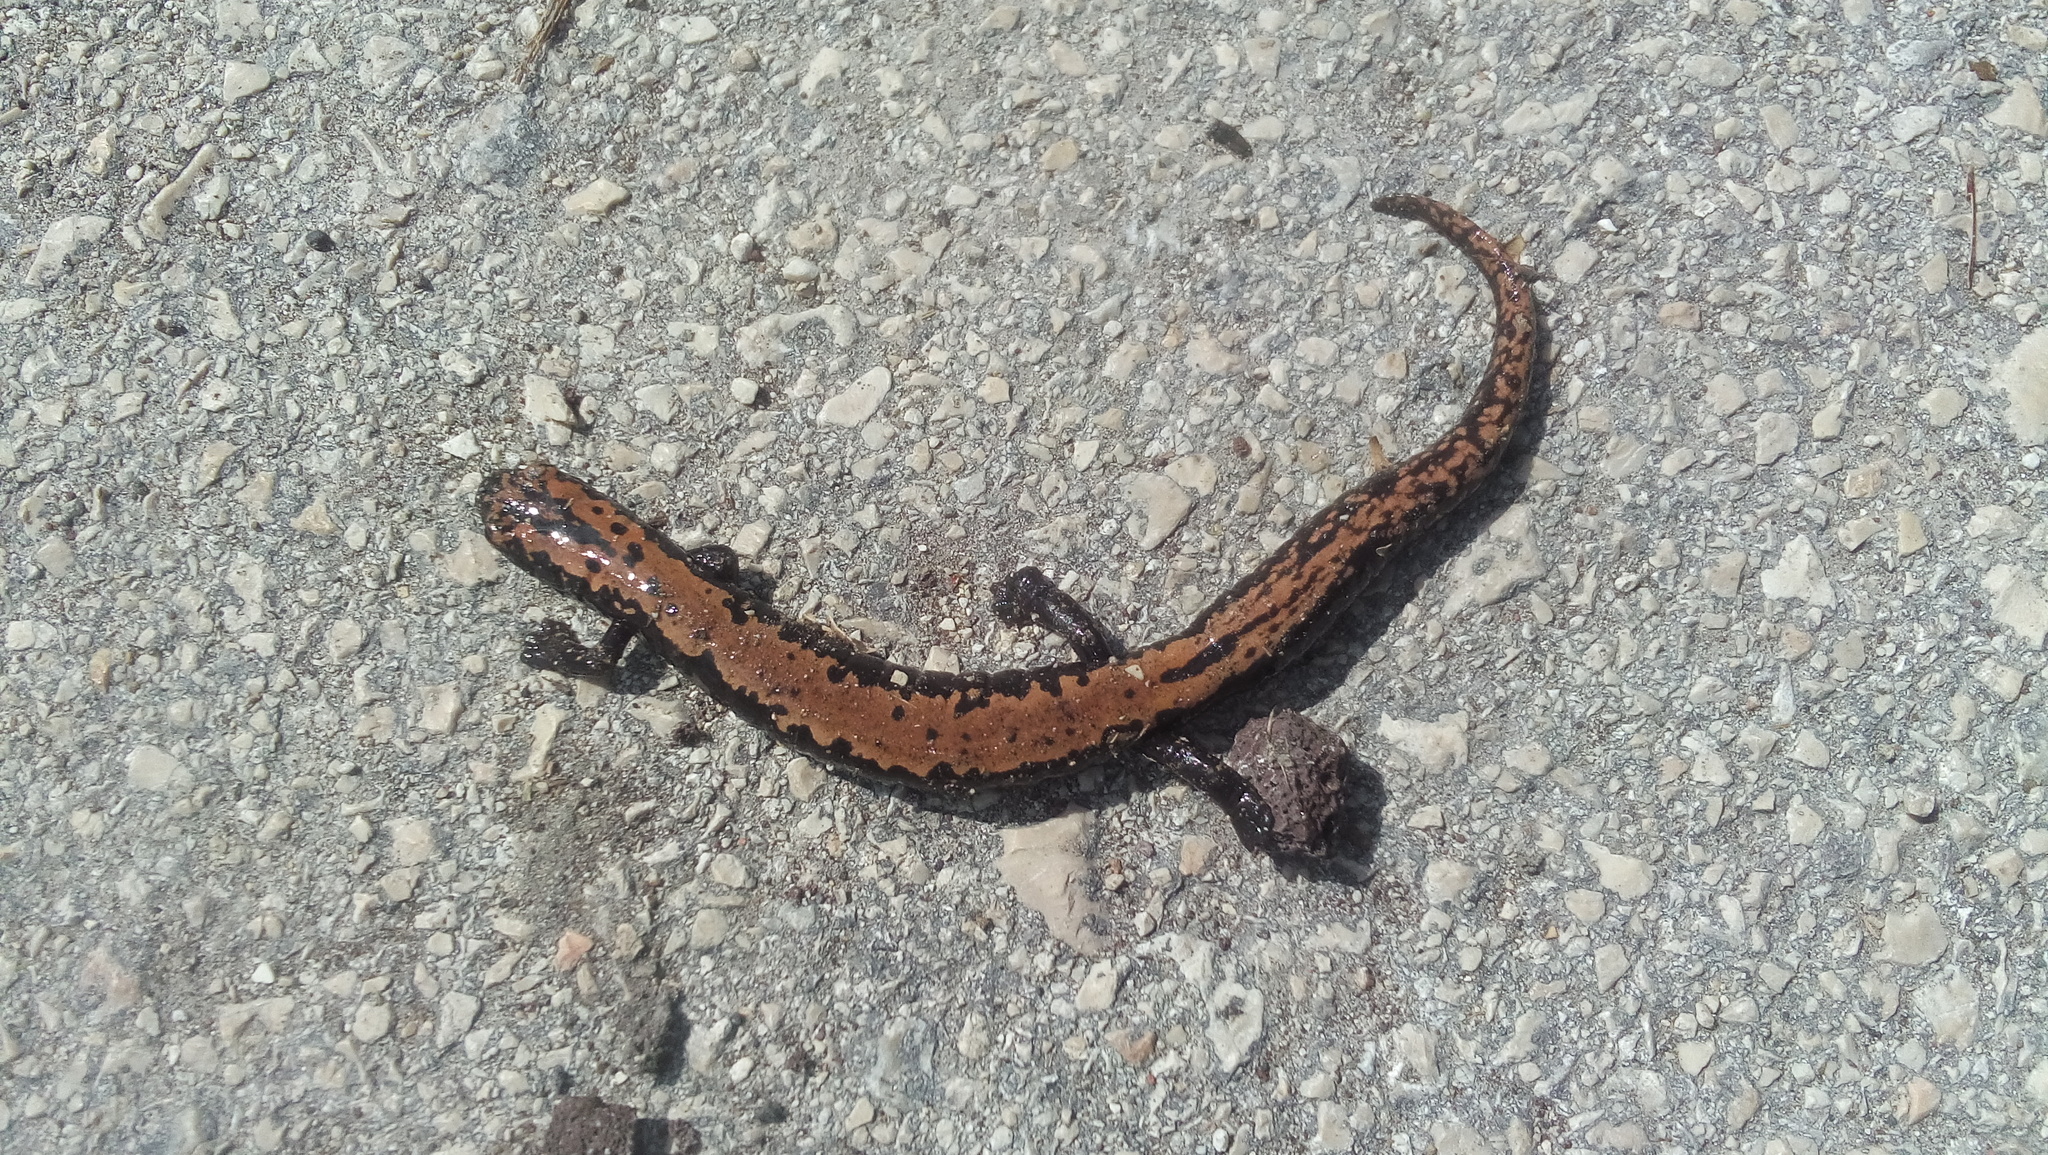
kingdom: Animalia
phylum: Chordata
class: Amphibia
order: Caudata
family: Plethodontidae
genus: Bolitoglossa
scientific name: Bolitoglossa platydactyla
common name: Broad-footed salamander
